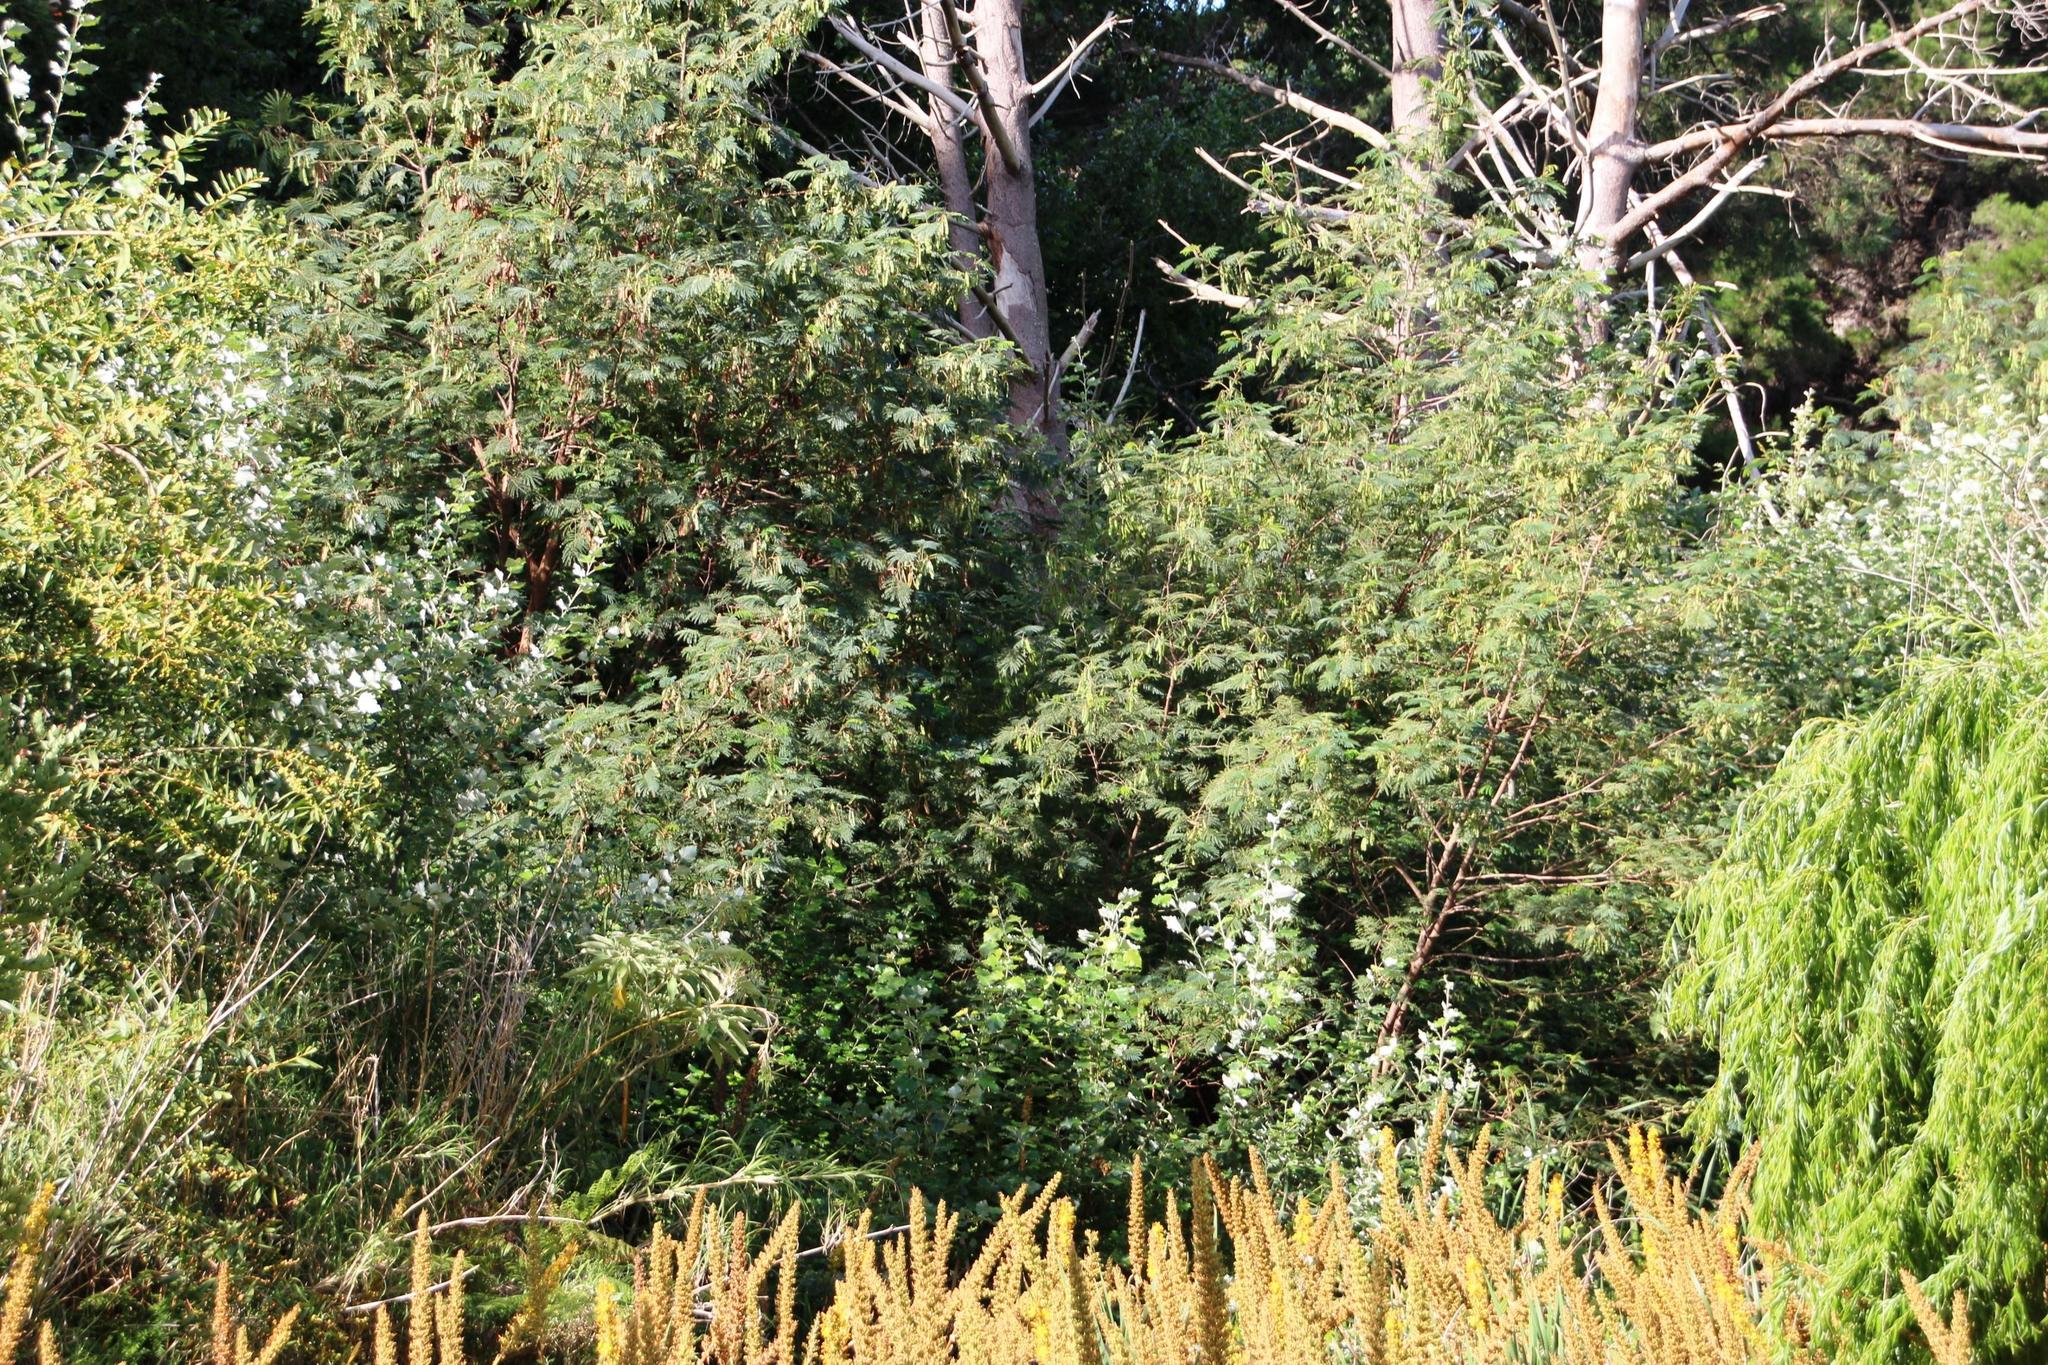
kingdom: Plantae
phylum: Tracheophyta
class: Magnoliopsida
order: Fabales
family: Fabaceae
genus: Paraserianthes
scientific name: Paraserianthes lophantha
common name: Plume albizia
